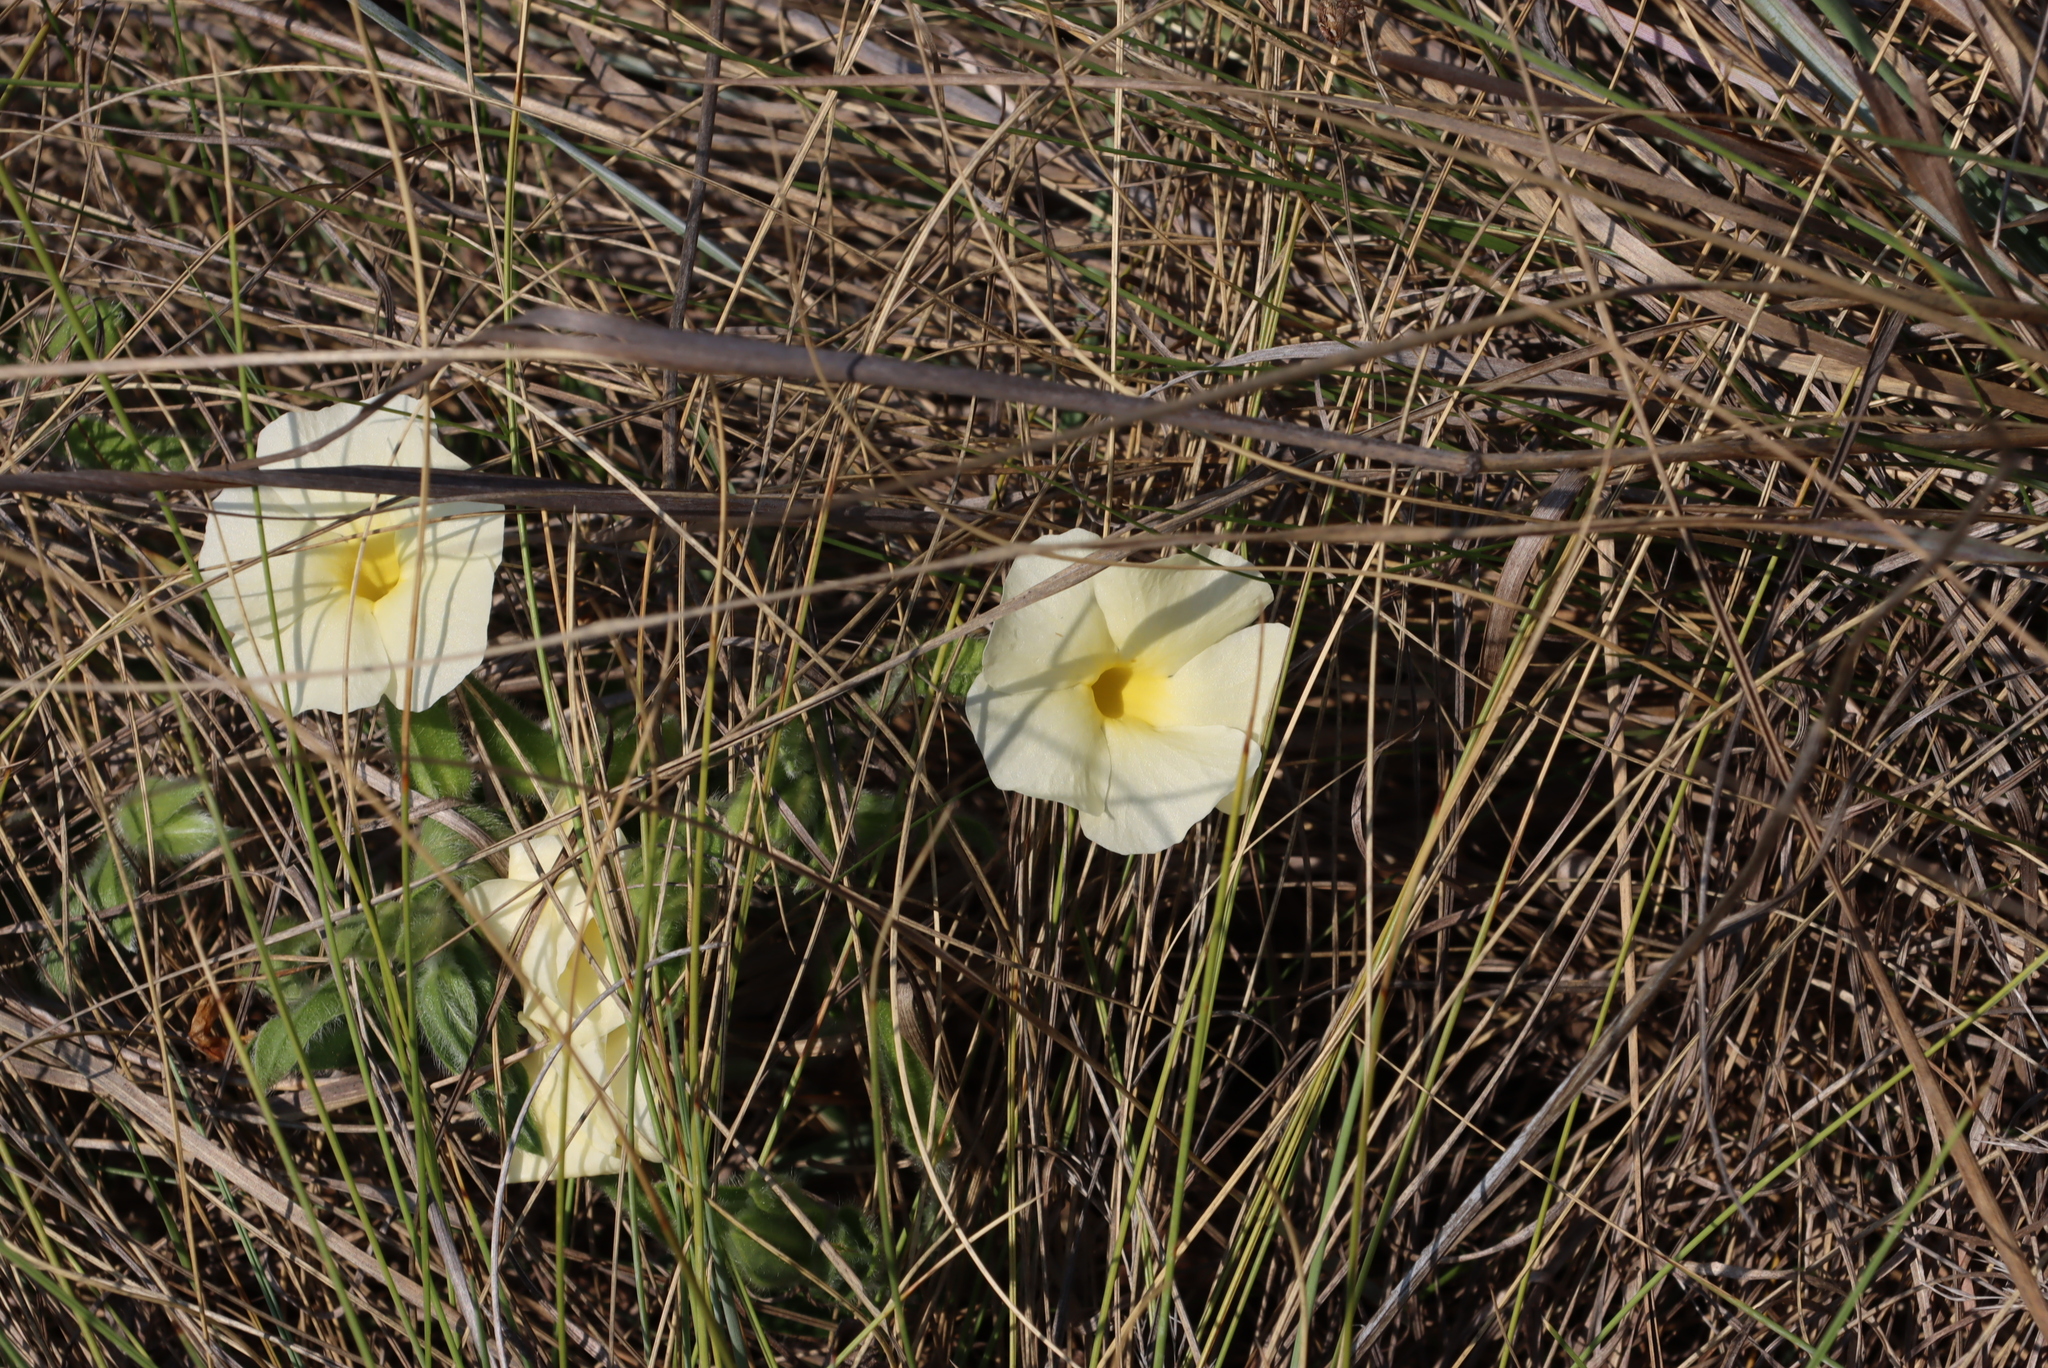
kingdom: Plantae
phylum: Tracheophyta
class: Magnoliopsida
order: Lamiales
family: Acanthaceae
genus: Thunbergia
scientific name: Thunbergia atriplicifolia
